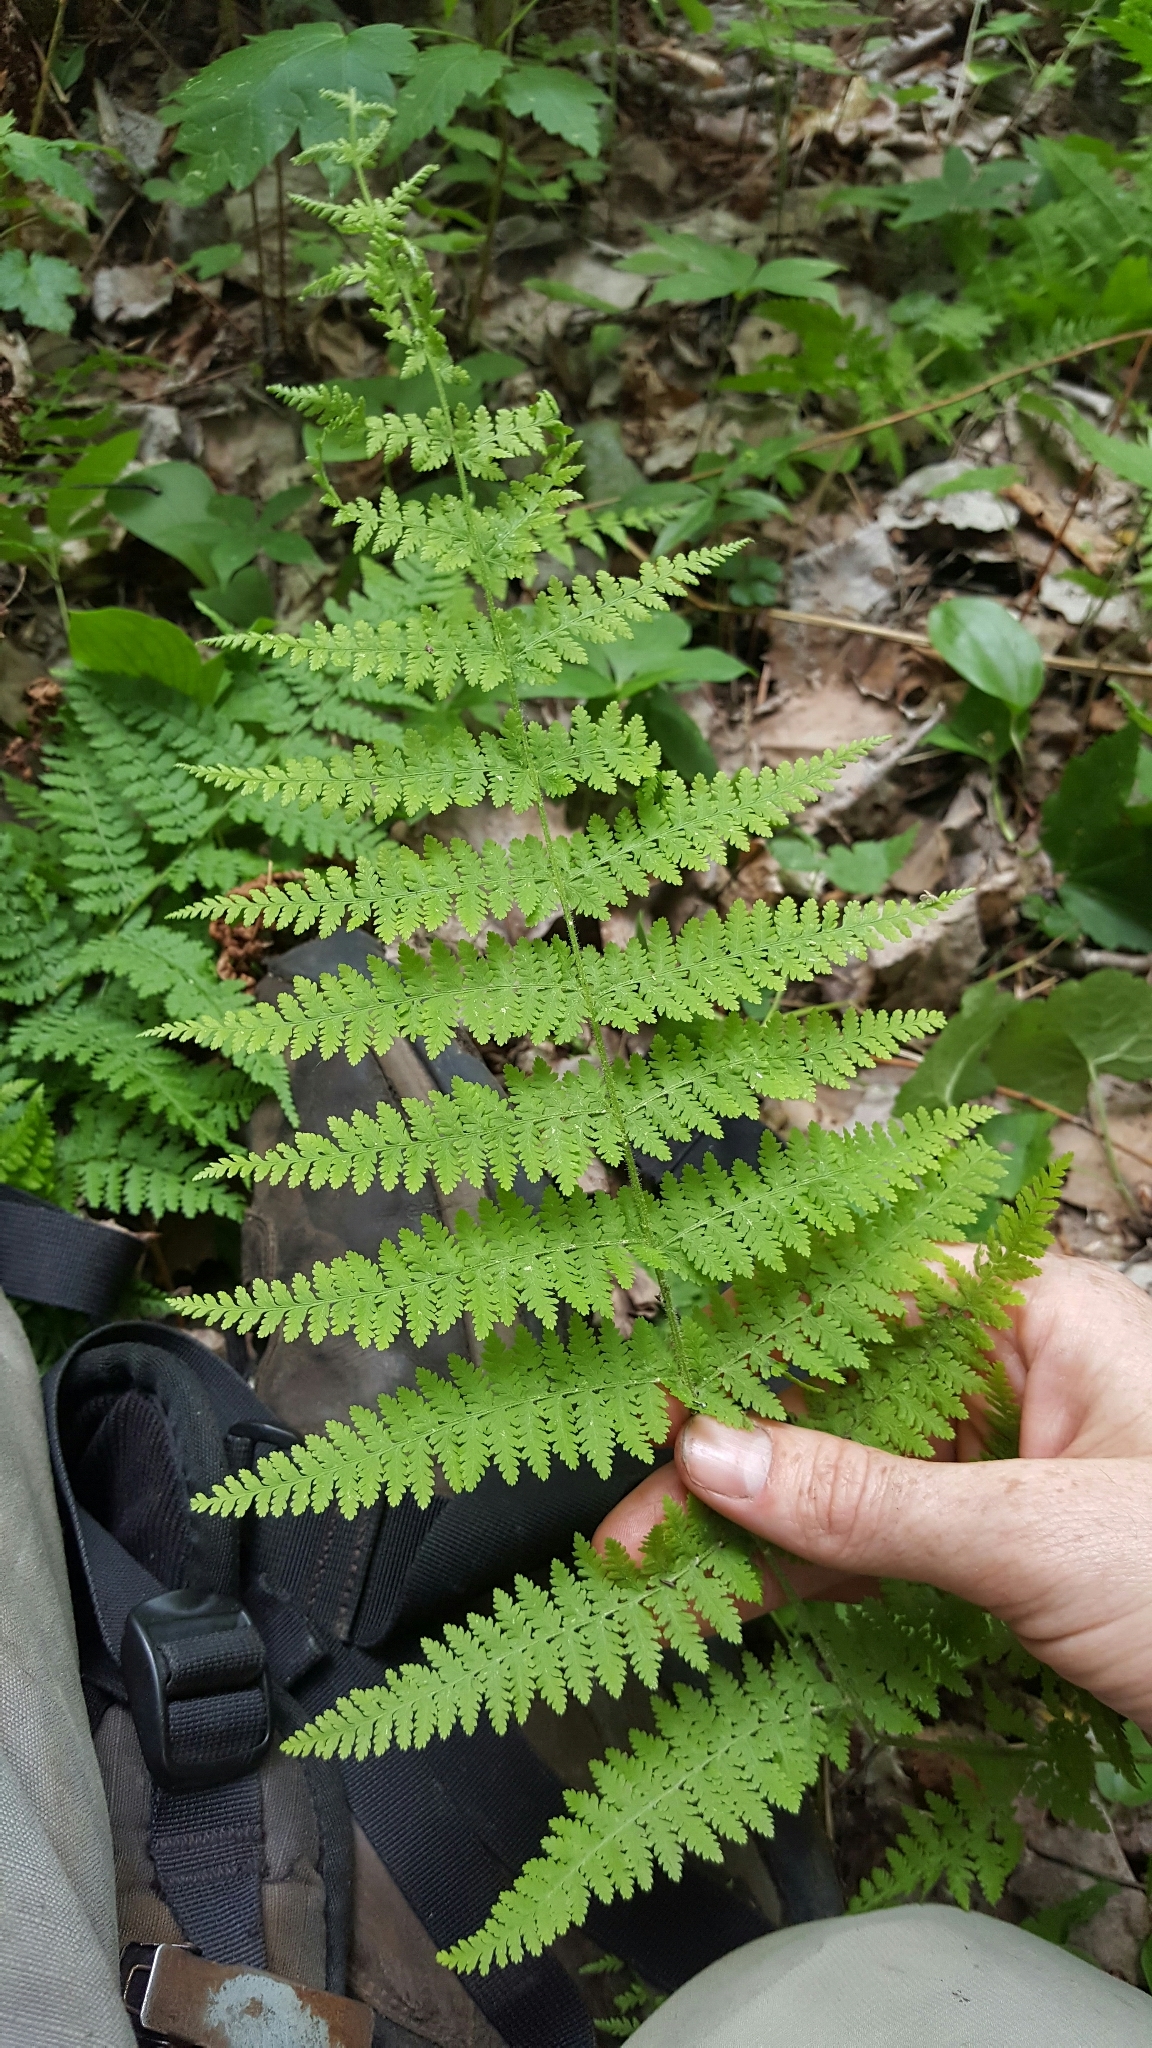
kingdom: Plantae
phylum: Tracheophyta
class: Polypodiopsida
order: Polypodiales
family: Dennstaedtiaceae
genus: Sitobolium
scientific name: Sitobolium punctilobum
